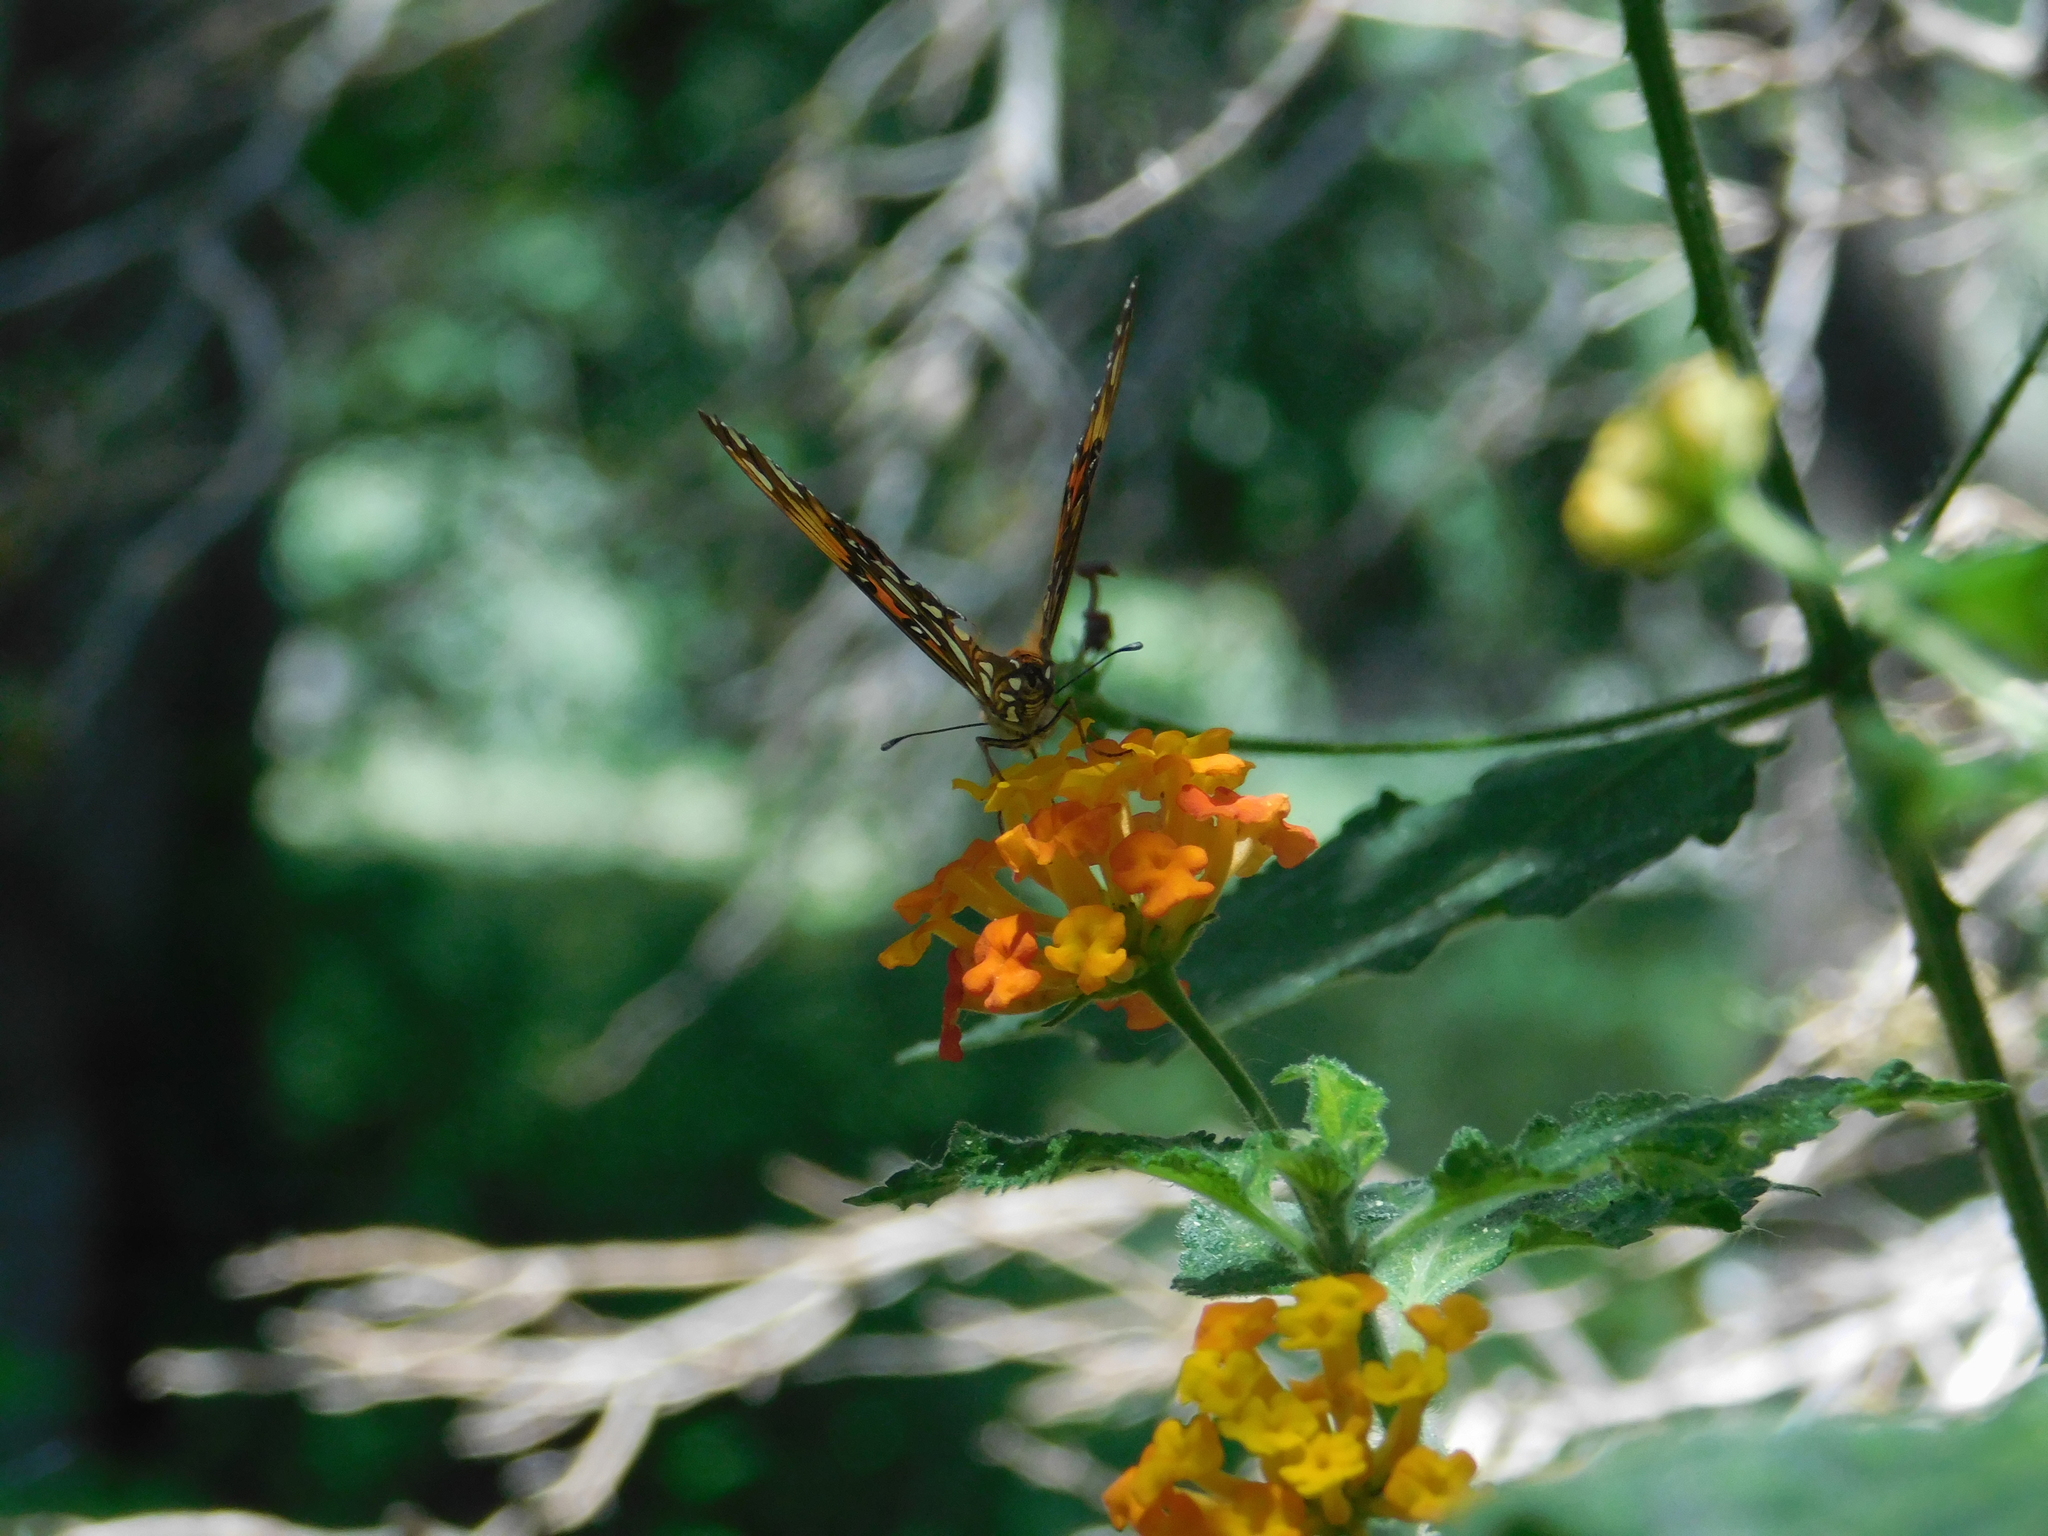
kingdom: Animalia
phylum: Arthropoda
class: Insecta
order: Lepidoptera
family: Nymphalidae
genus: Dione
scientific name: Dione vanillae
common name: Gulf fritillary
